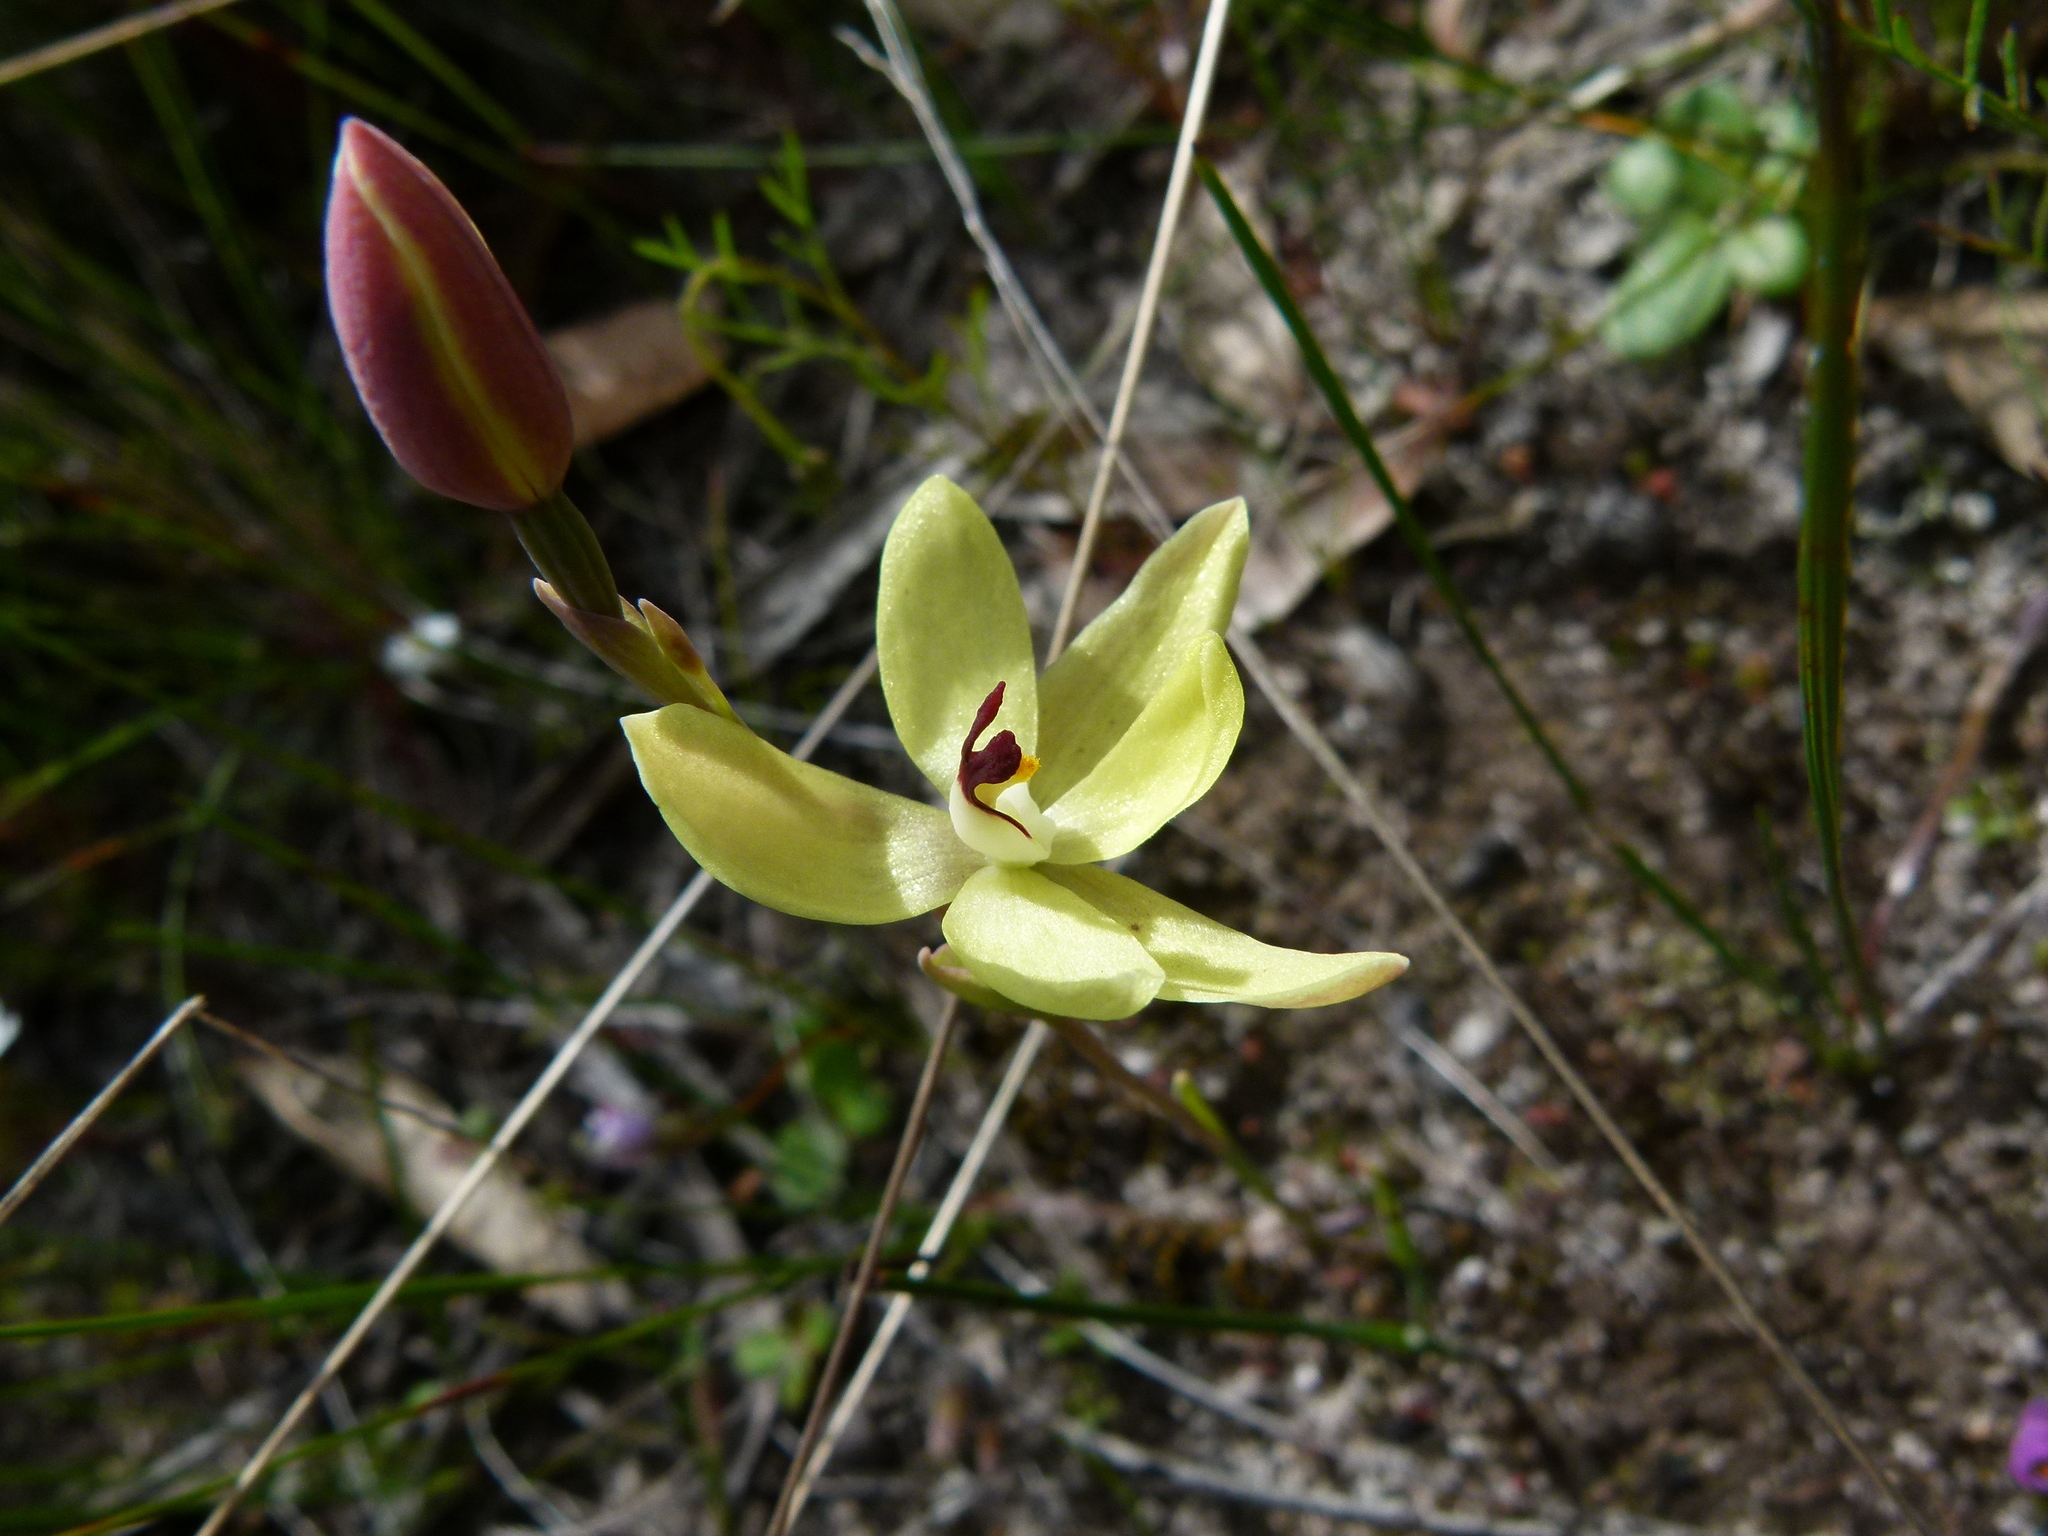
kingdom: Plantae
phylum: Tracheophyta
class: Liliopsida
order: Asparagales
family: Orchidaceae
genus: Thelymitra
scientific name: Thelymitra antennifera
